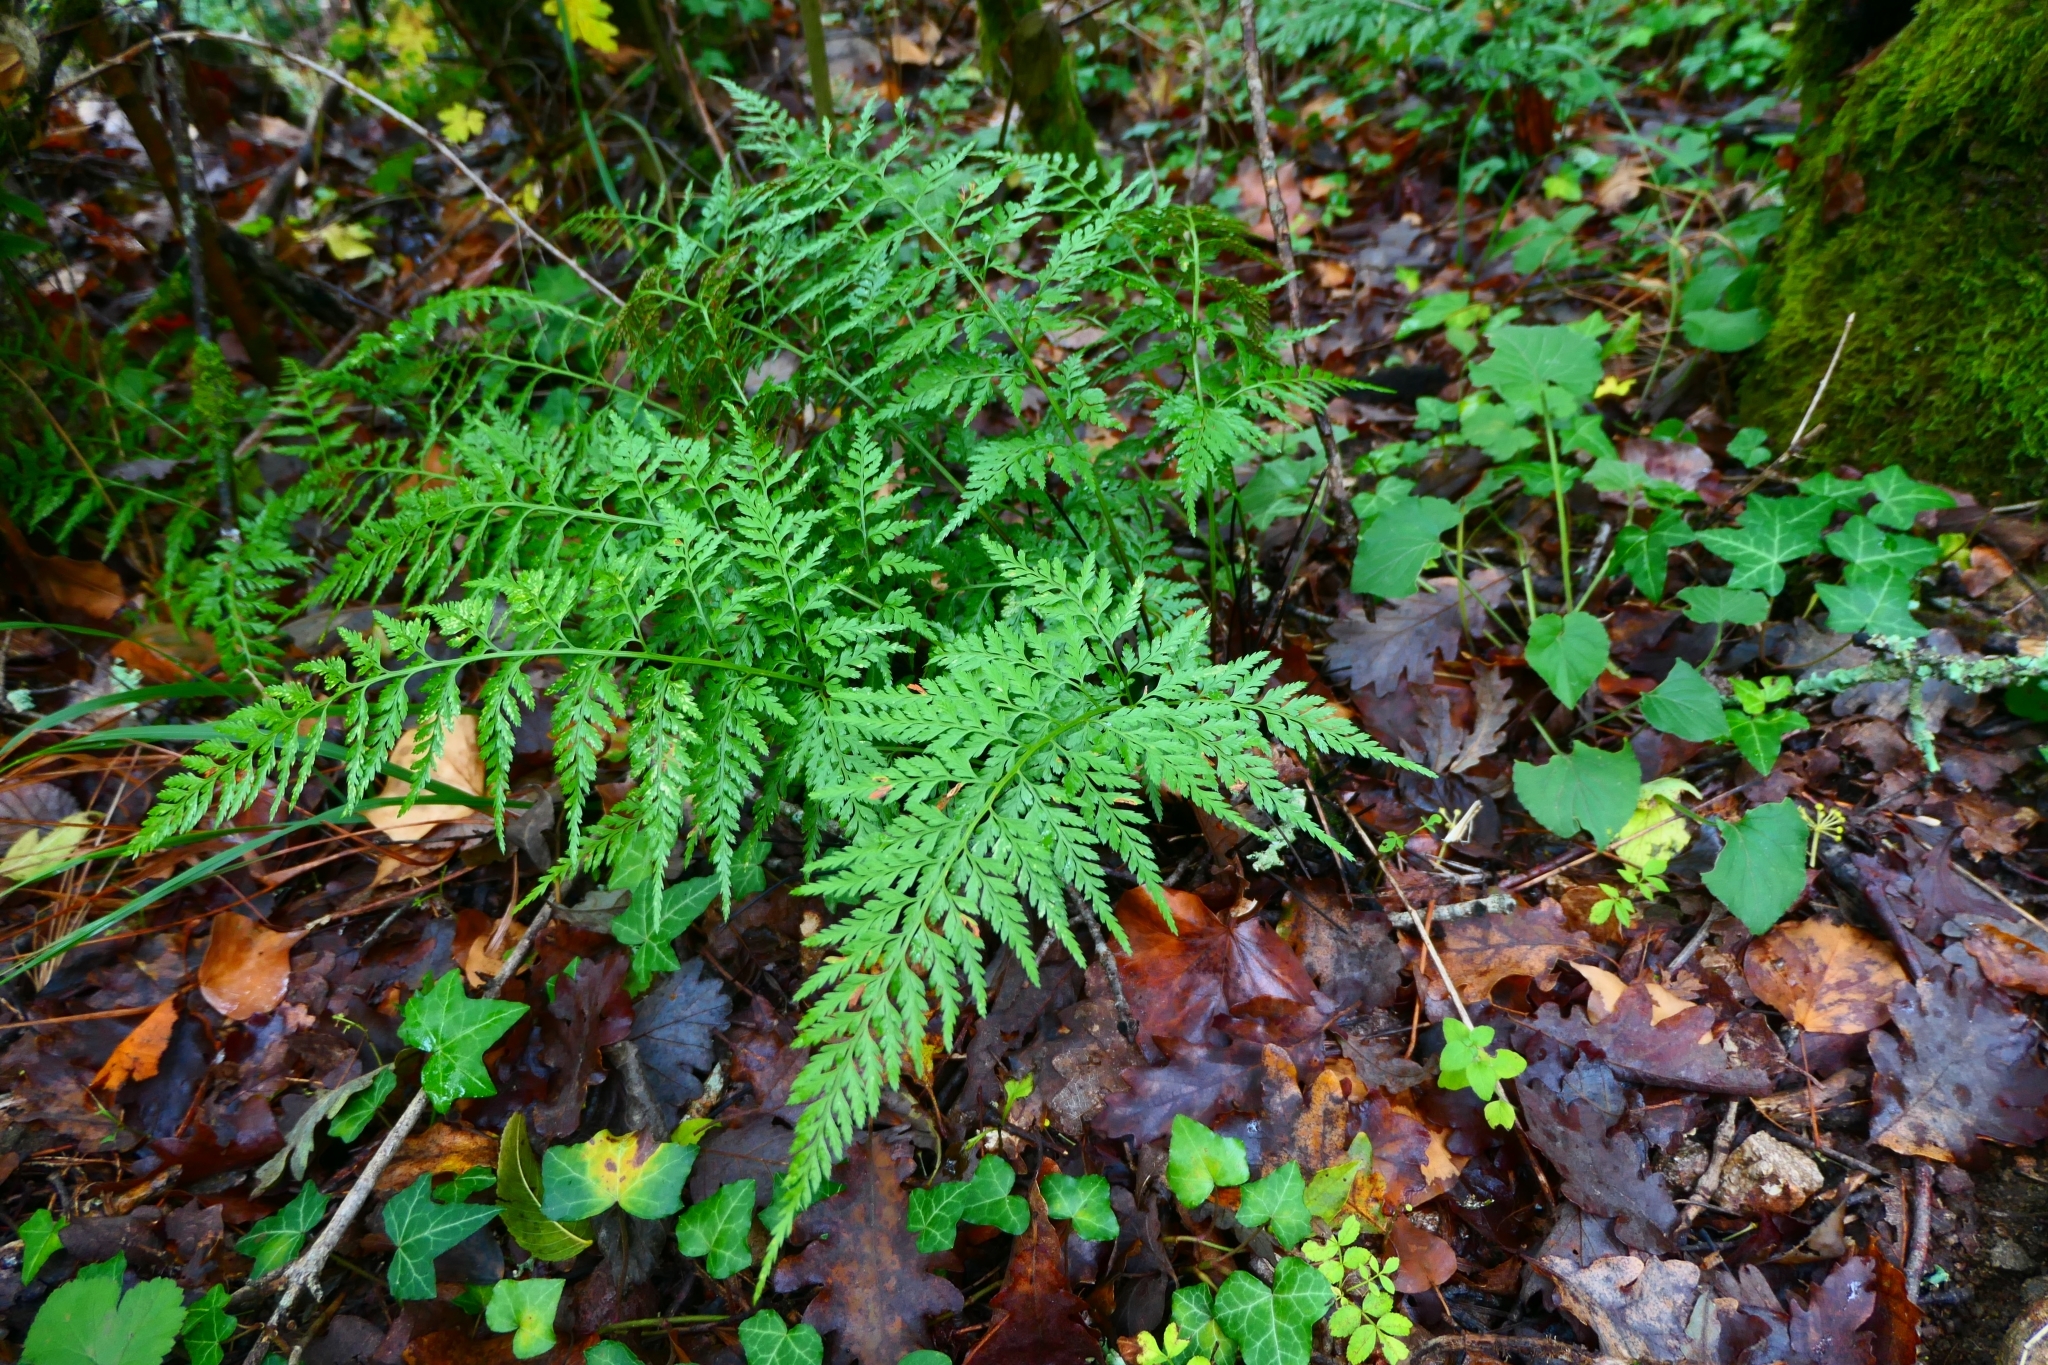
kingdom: Plantae
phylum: Tracheophyta
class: Polypodiopsida
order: Polypodiales
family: Aspleniaceae
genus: Asplenium
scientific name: Asplenium onopteris
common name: Irish spleenwort
